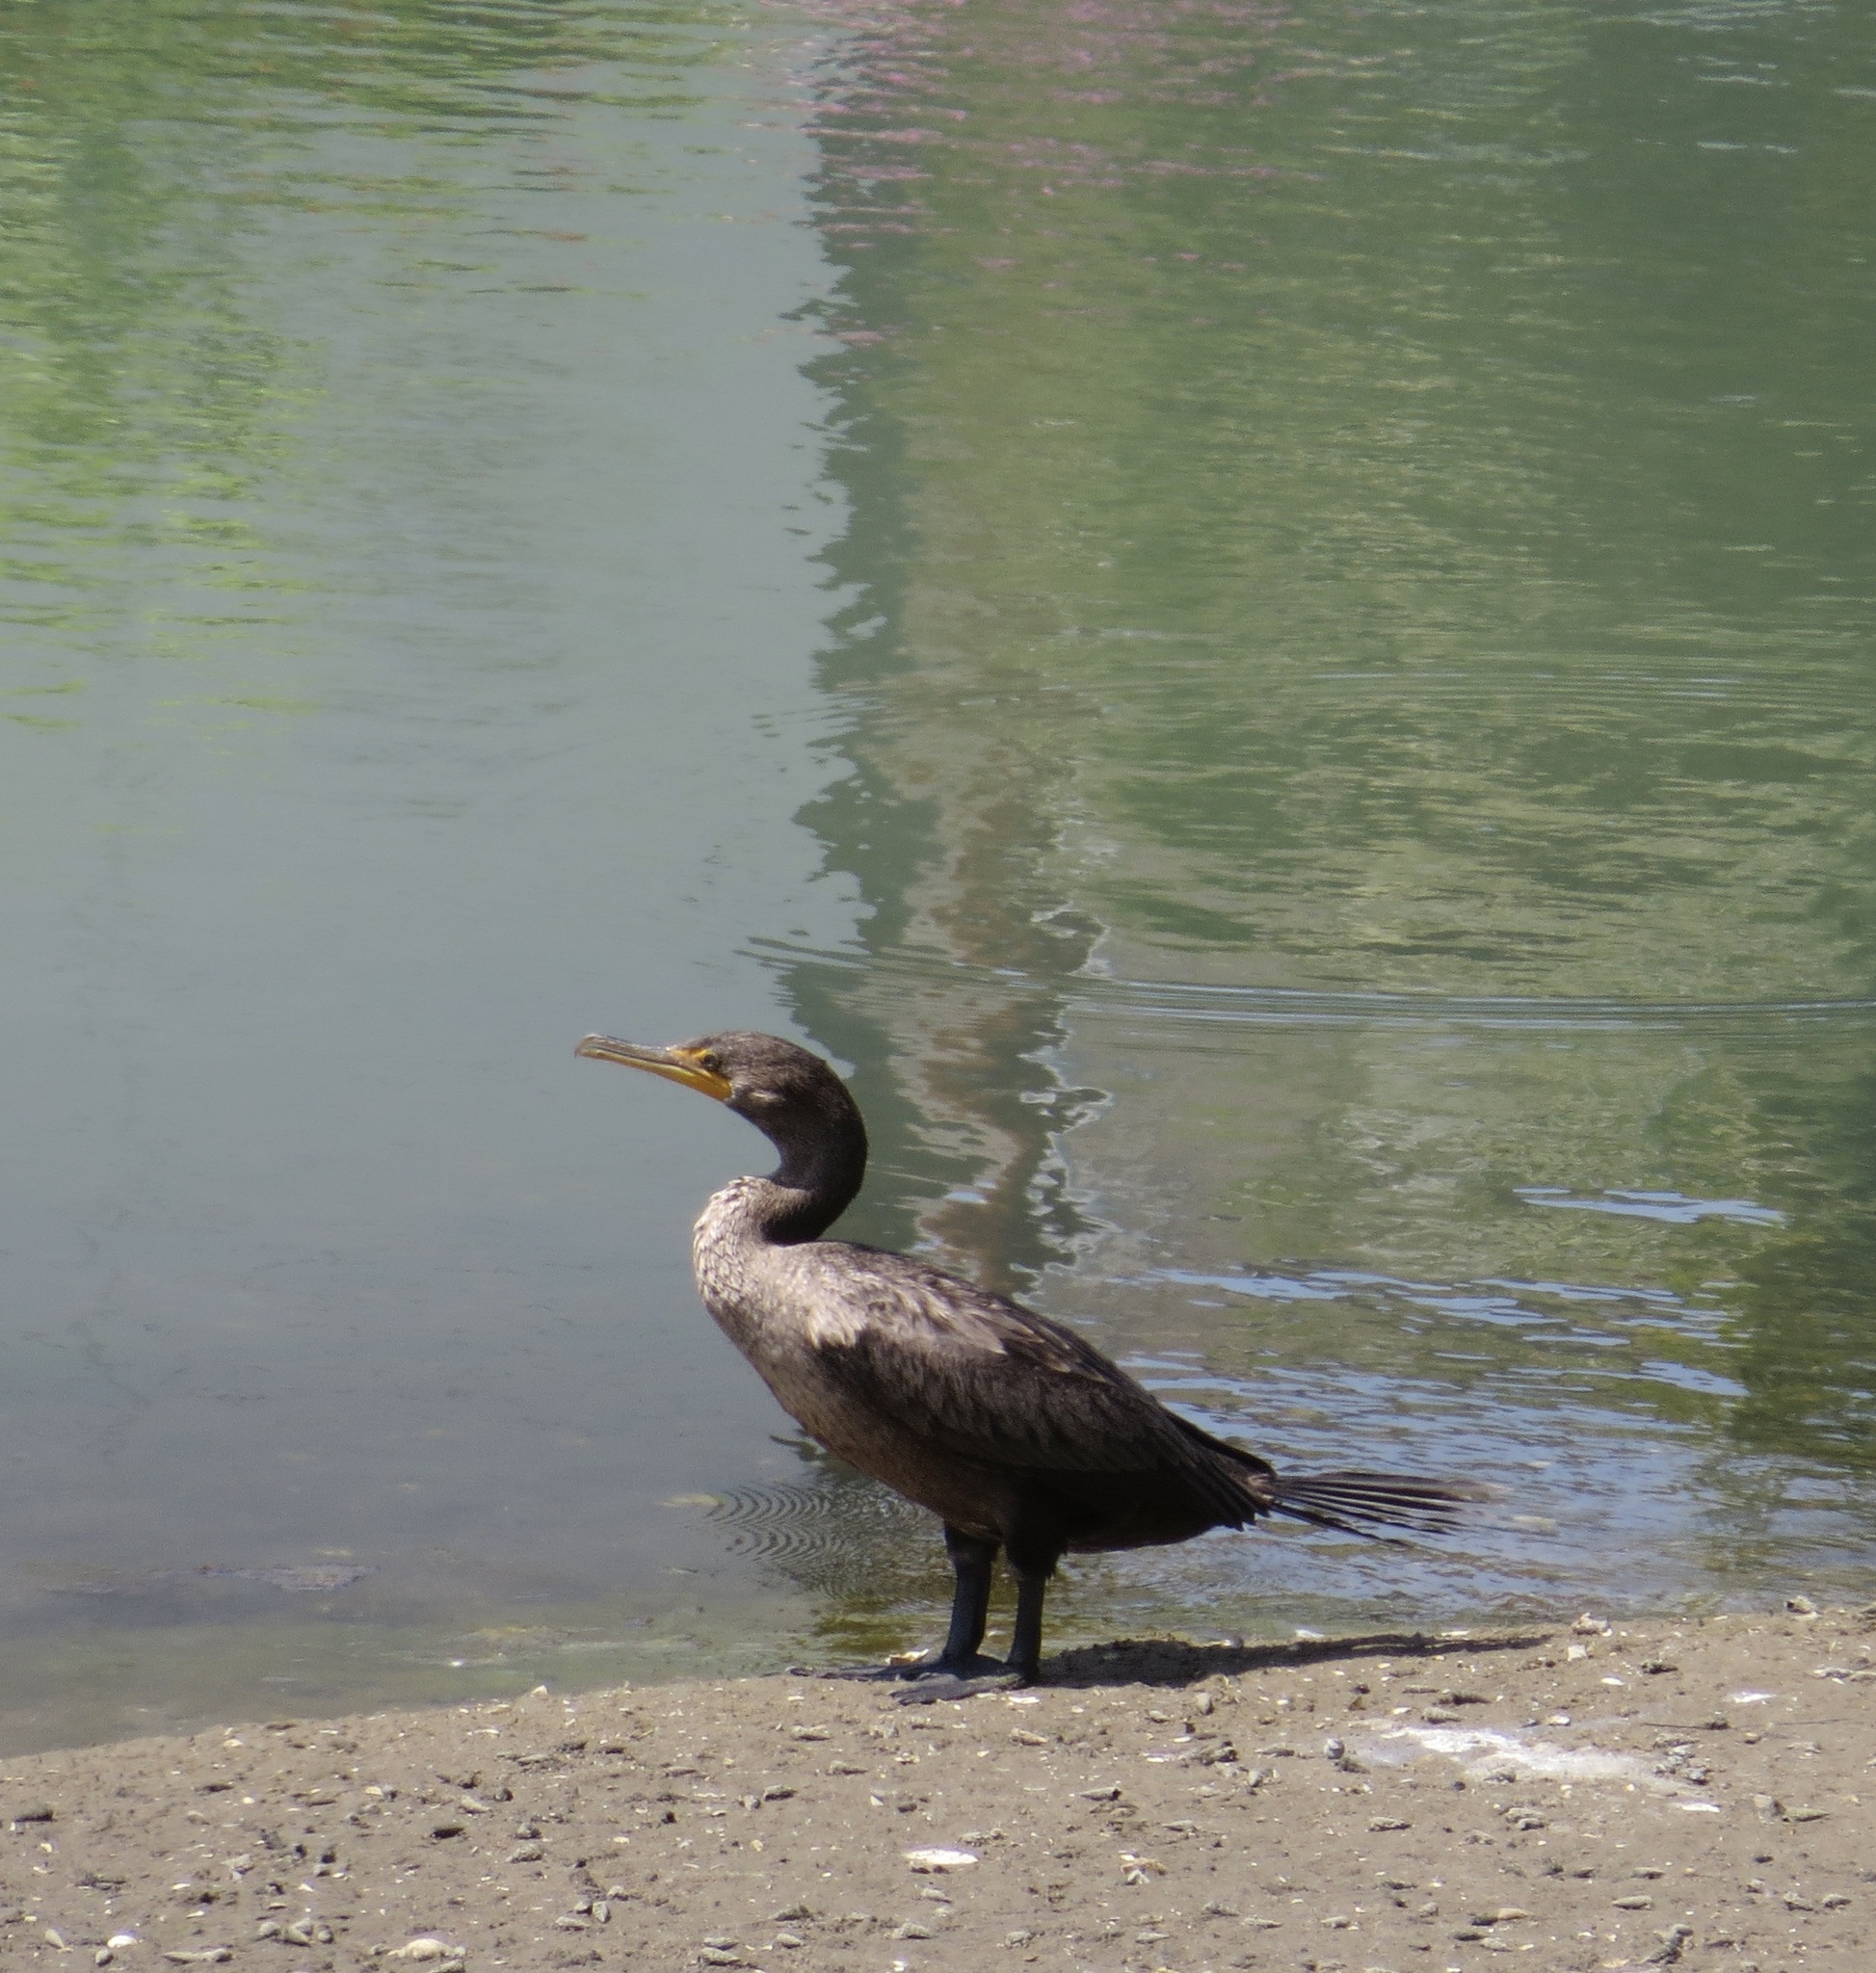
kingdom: Animalia
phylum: Chordata
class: Aves
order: Suliformes
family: Phalacrocoracidae
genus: Phalacrocorax
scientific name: Phalacrocorax auritus
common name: Double-crested cormorant
